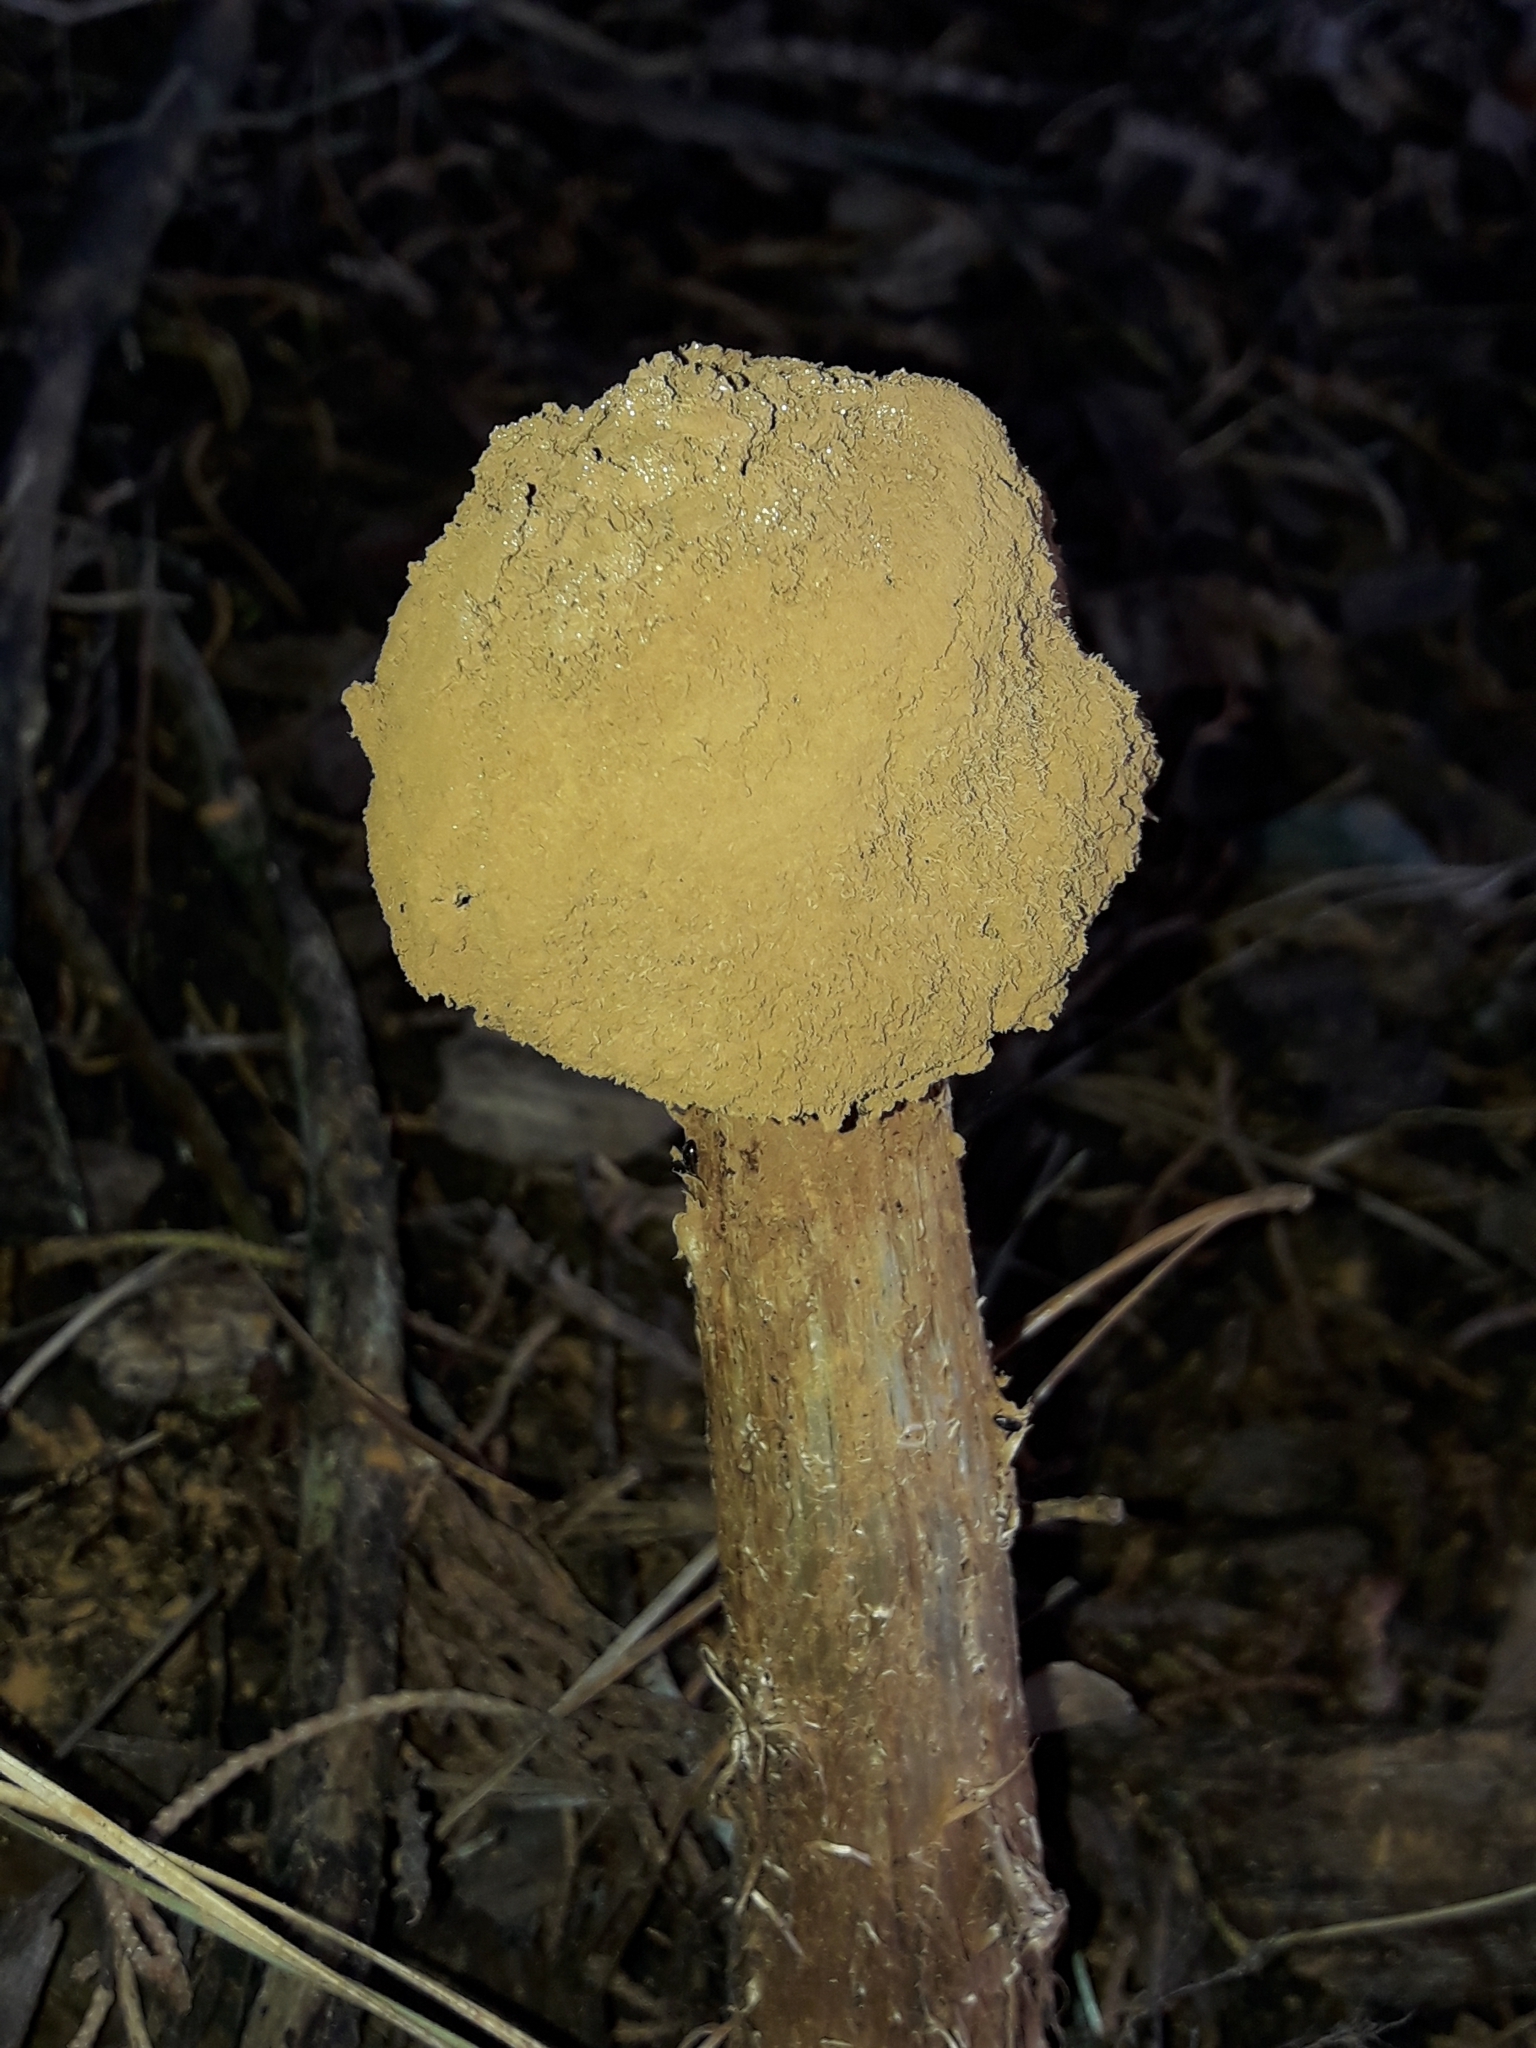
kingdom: Fungi
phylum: Basidiomycota
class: Agaricomycetes
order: Agaricales
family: Agaricaceae
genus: Battarrea
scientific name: Battarrea phalloides
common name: Sandy stiltball
